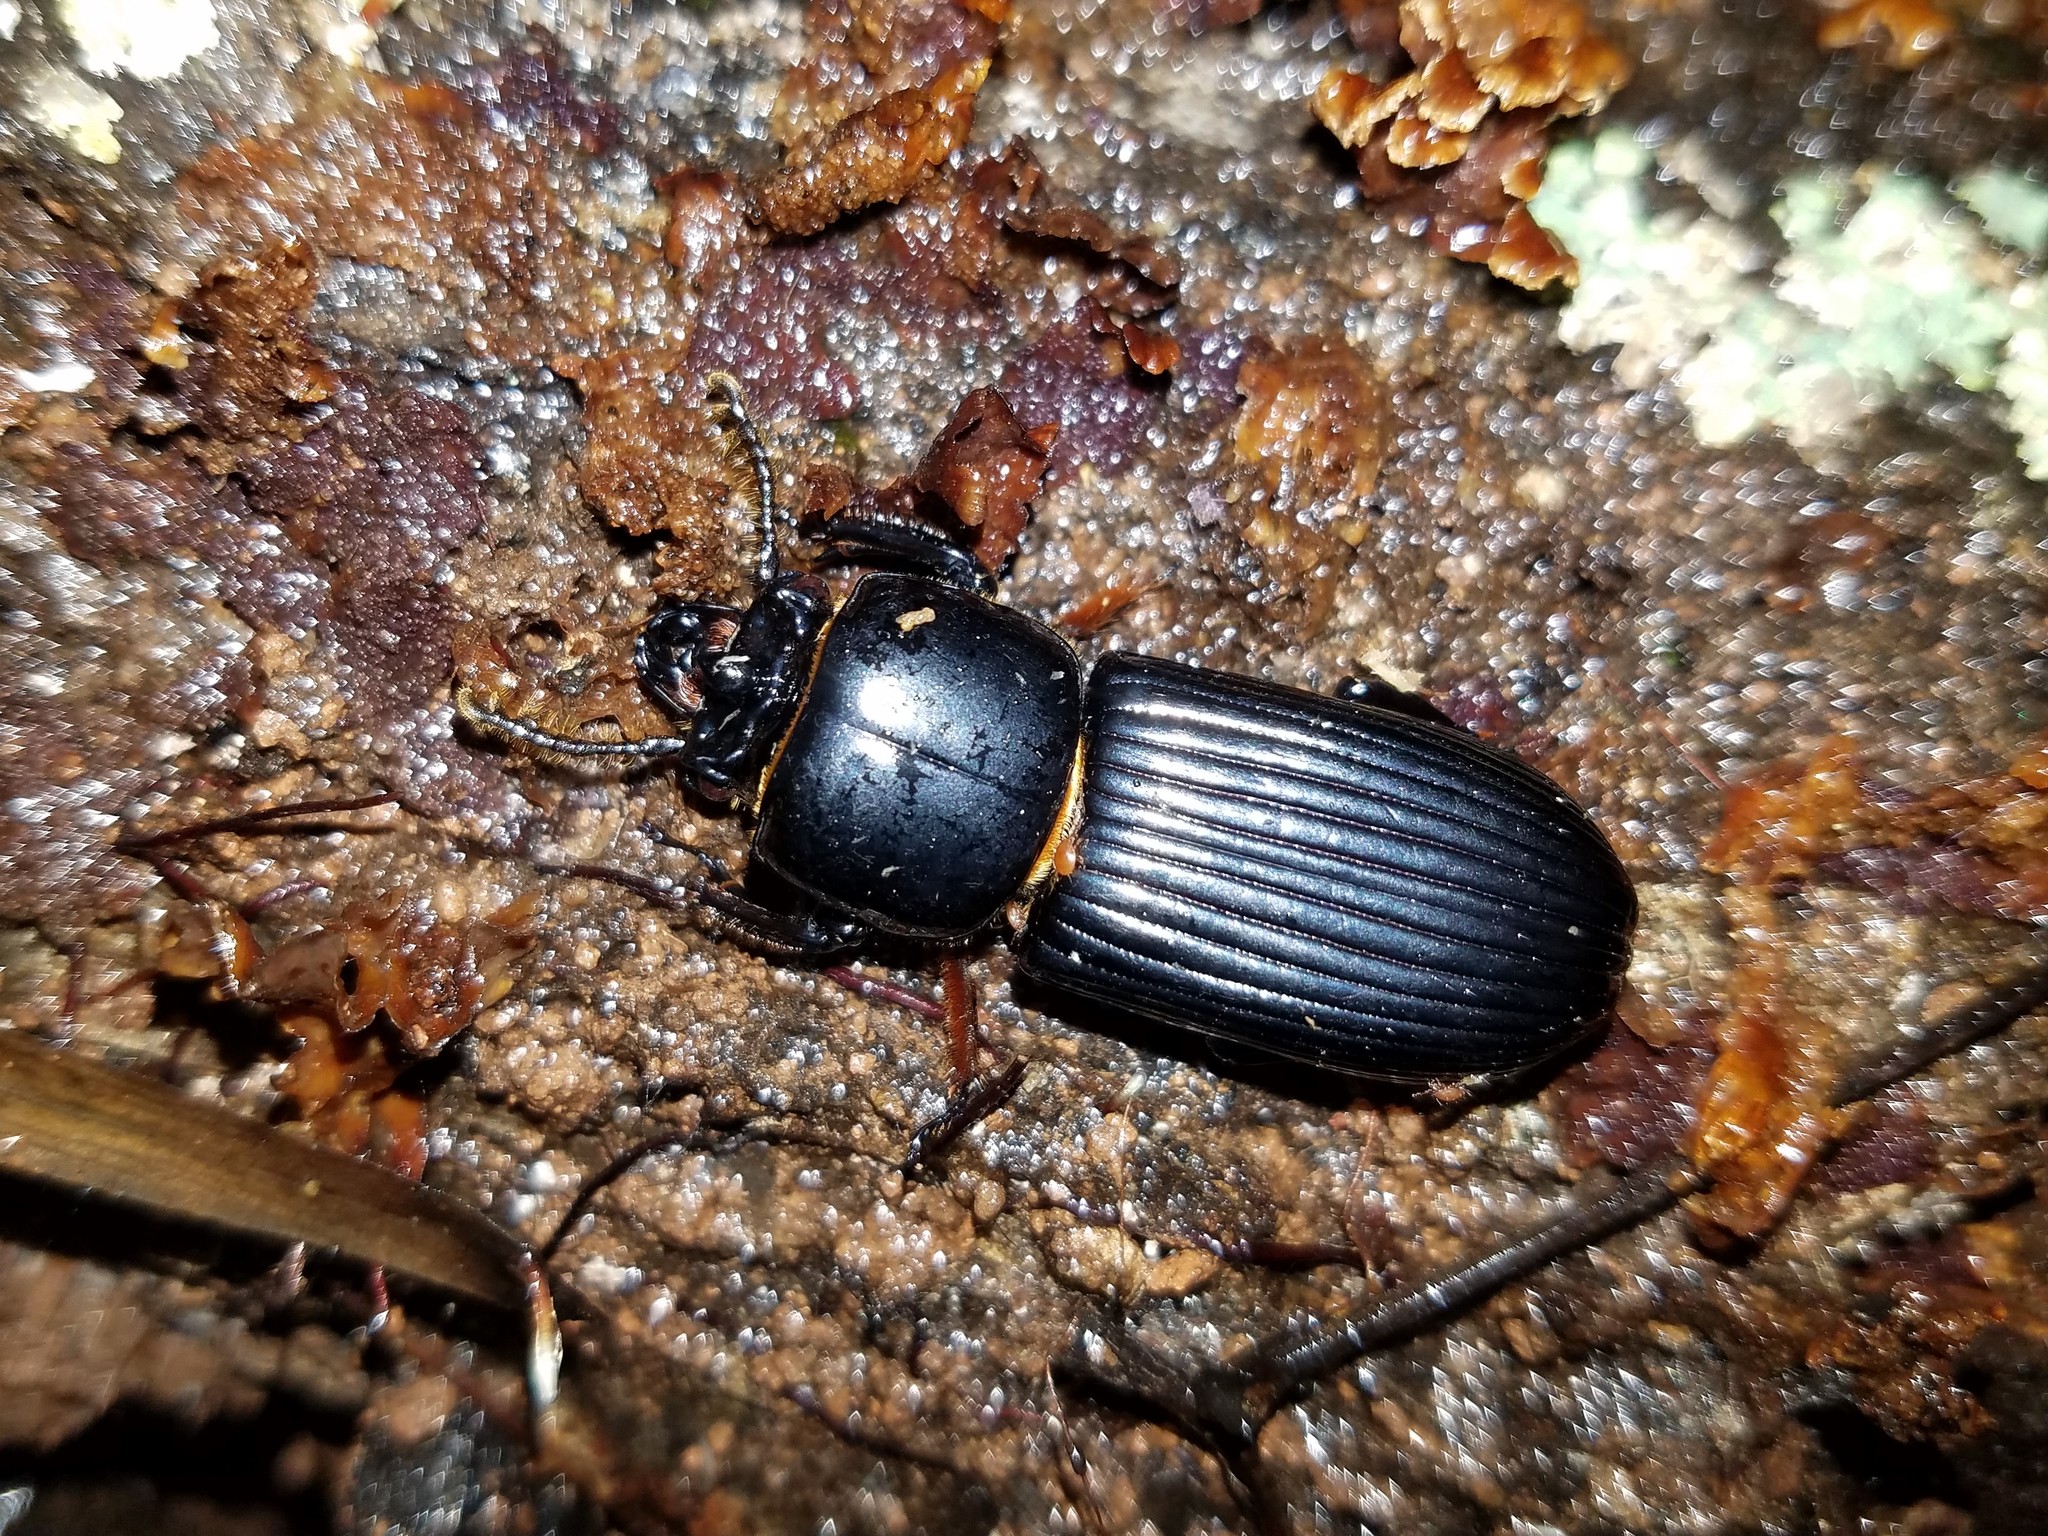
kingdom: Animalia
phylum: Arthropoda
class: Insecta
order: Coleoptera
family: Passalidae
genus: Odontotaenius
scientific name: Odontotaenius disjunctus
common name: Patent leather beetle
